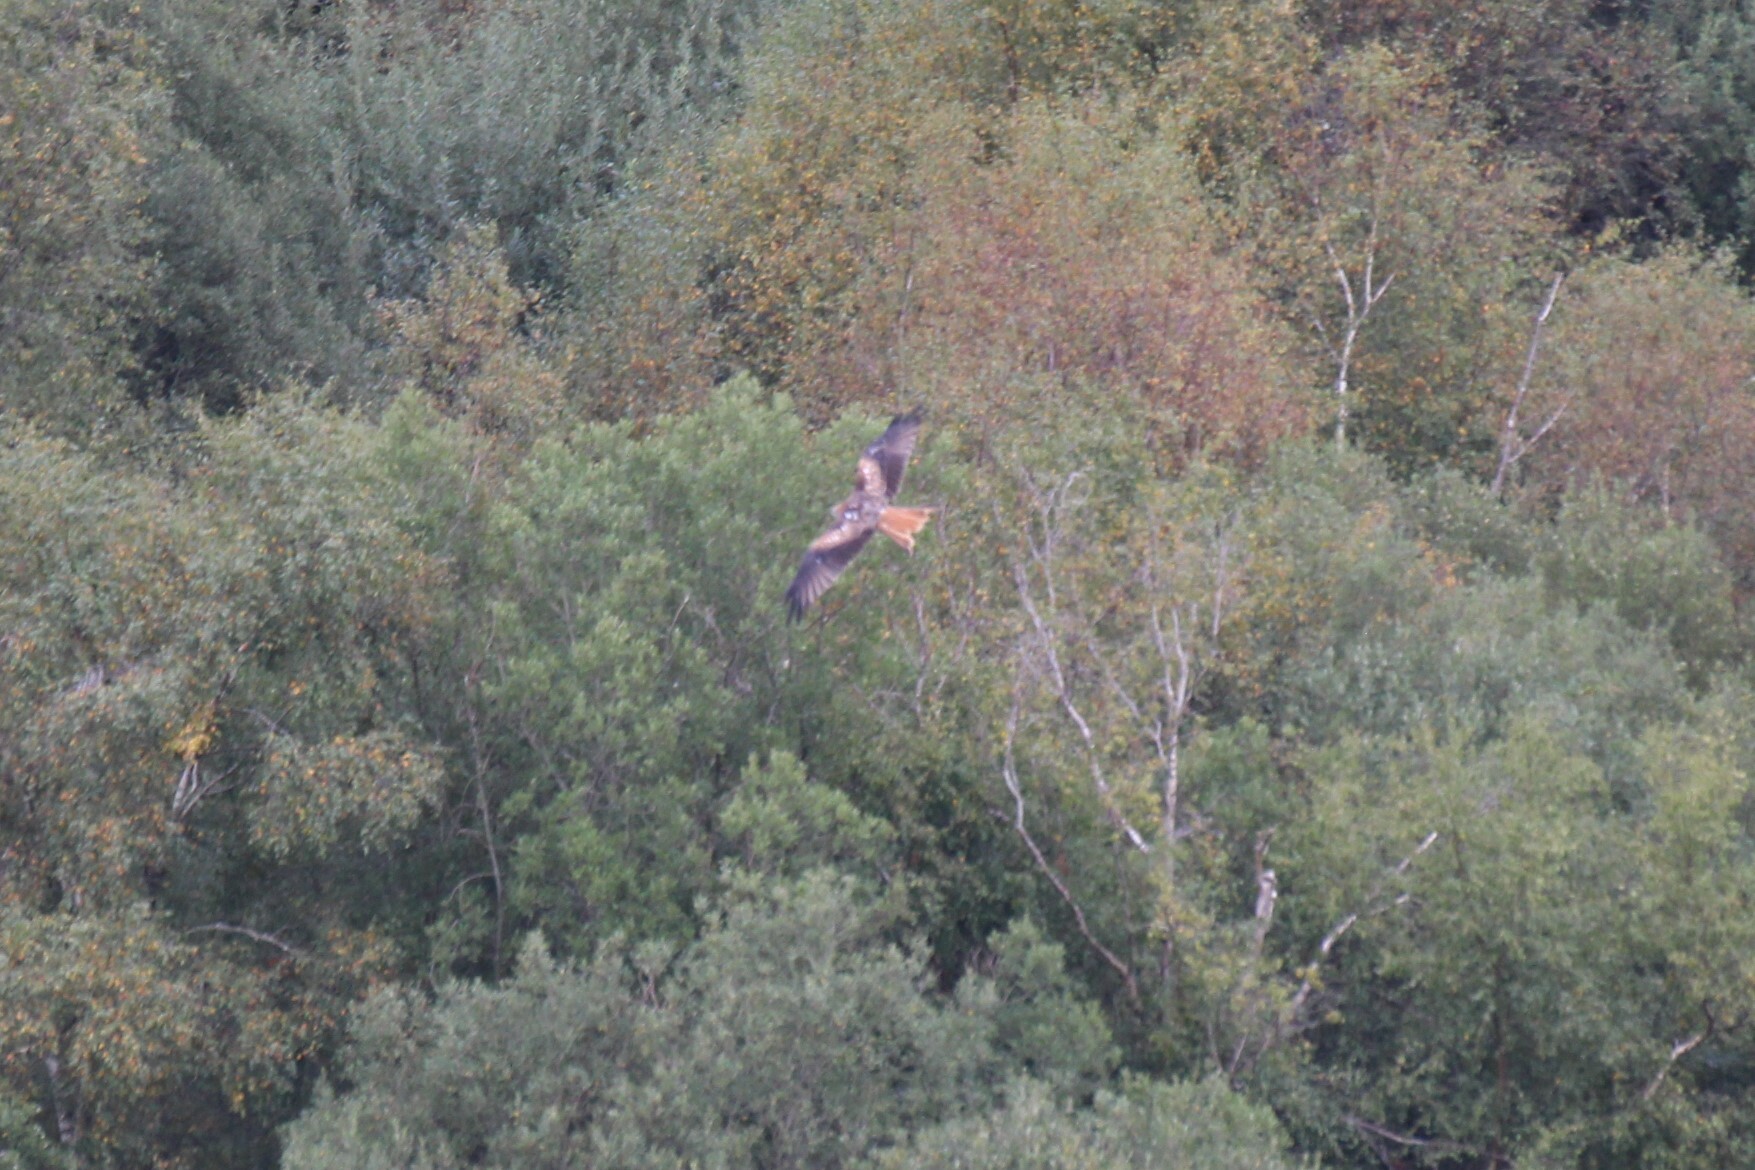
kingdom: Animalia
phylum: Chordata
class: Aves
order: Accipitriformes
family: Accipitridae
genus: Milvus
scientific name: Milvus milvus
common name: Red kite
